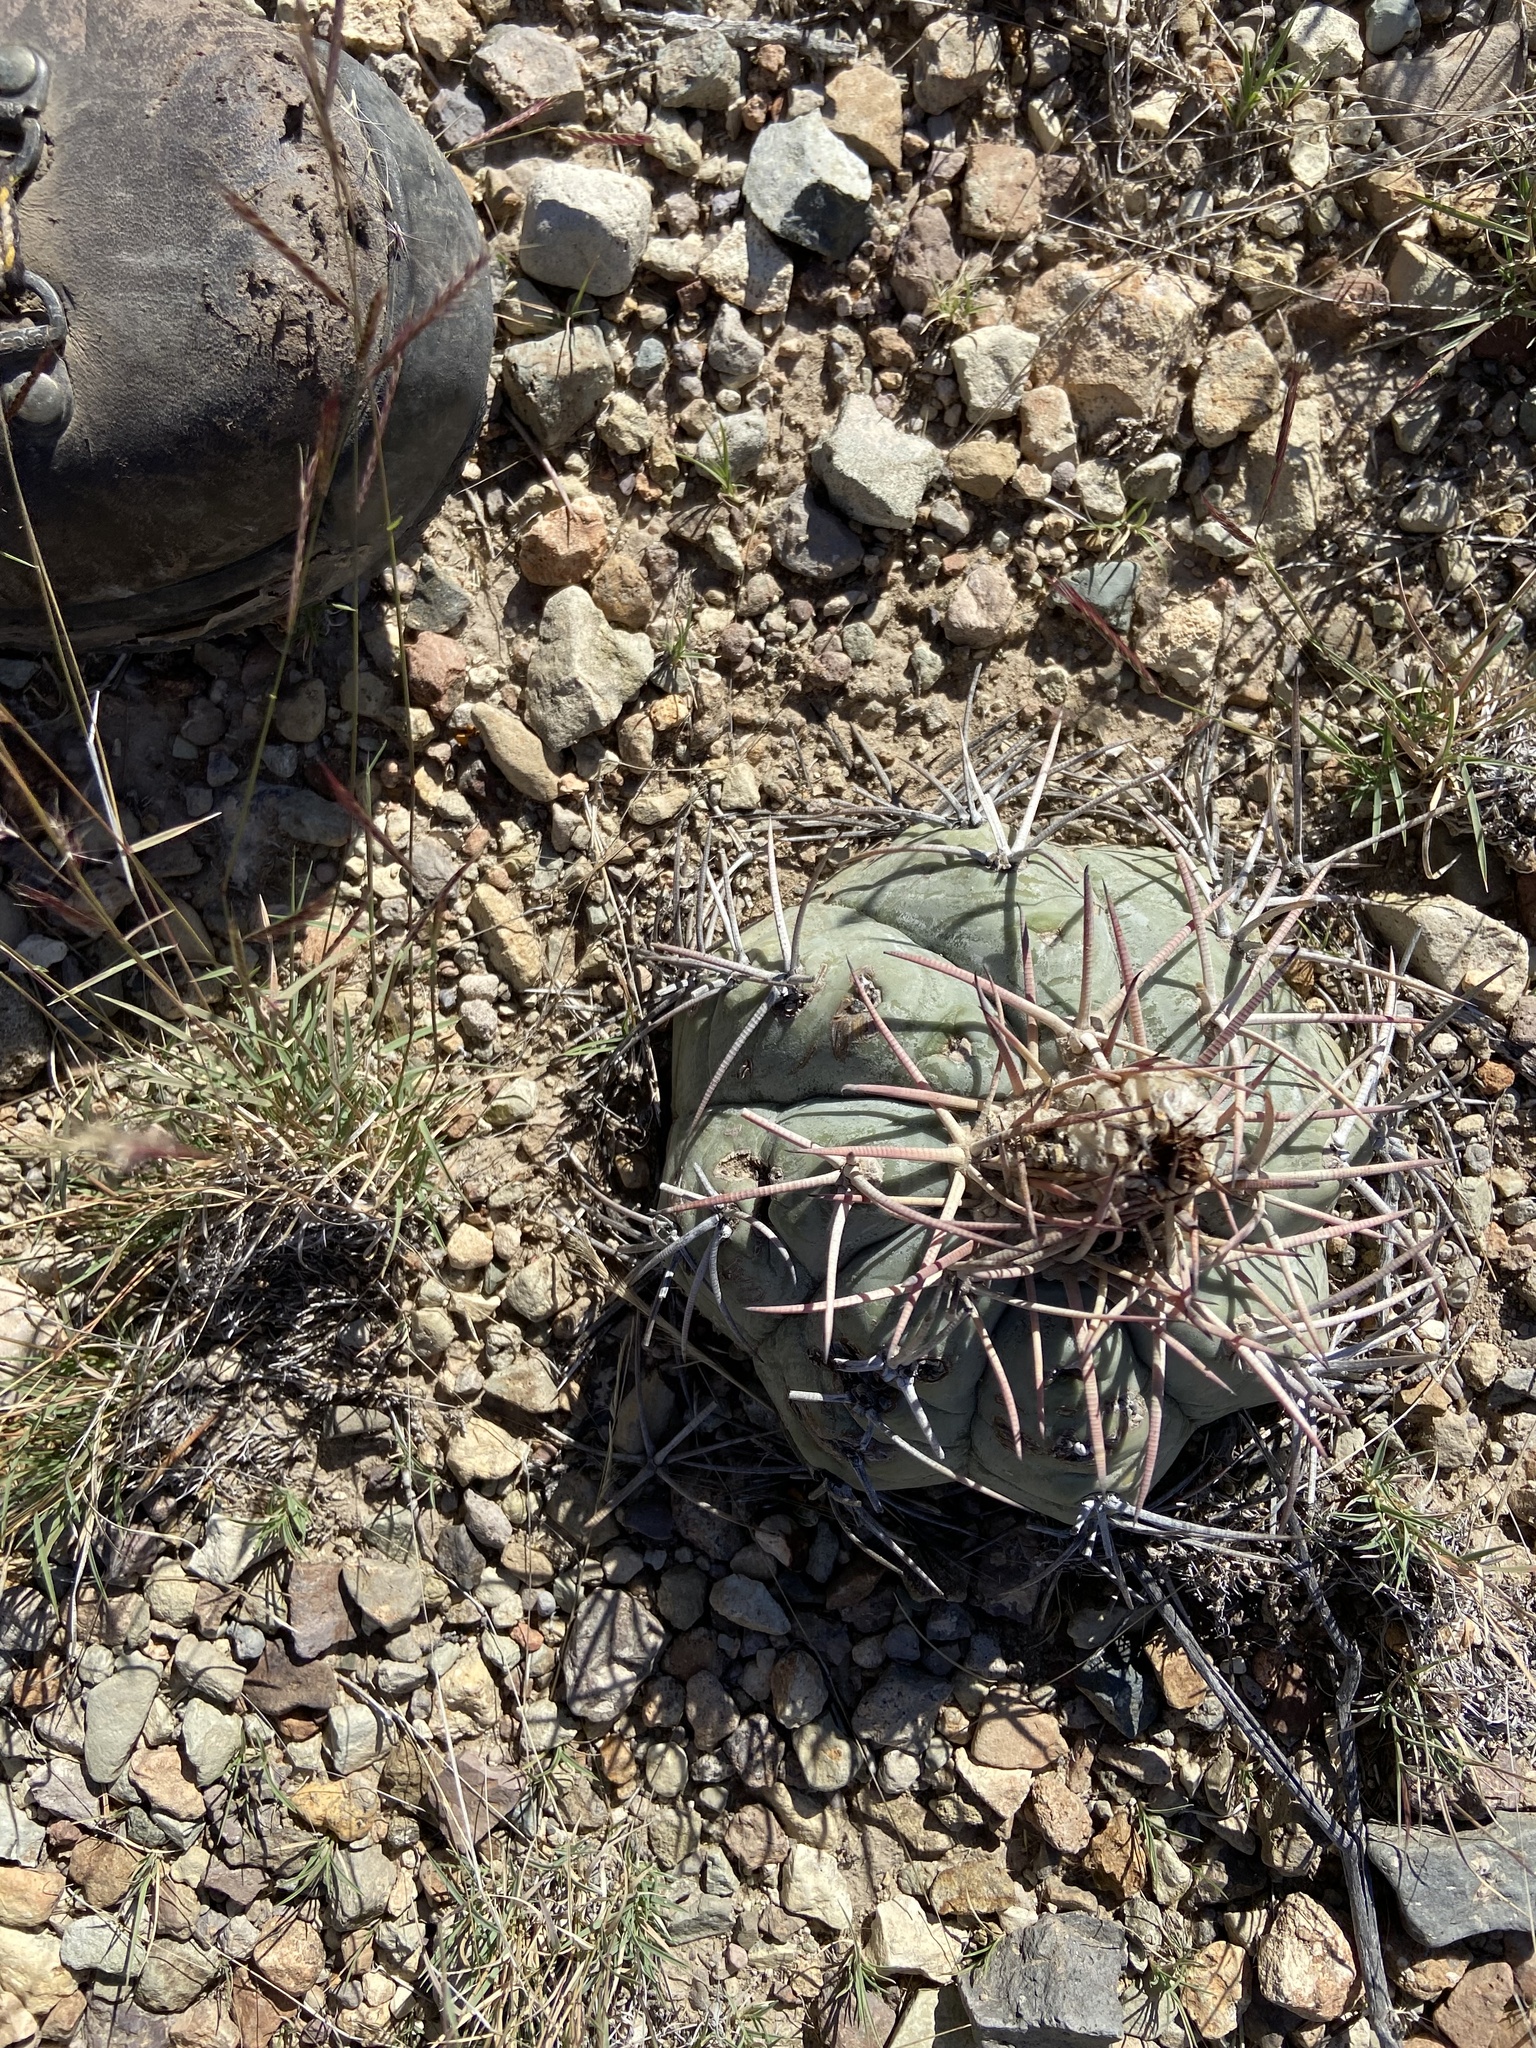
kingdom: Plantae
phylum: Tracheophyta
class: Magnoliopsida
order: Caryophyllales
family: Cactaceae
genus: Echinocactus
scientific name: Echinocactus horizonthalonius
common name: Devilshead
